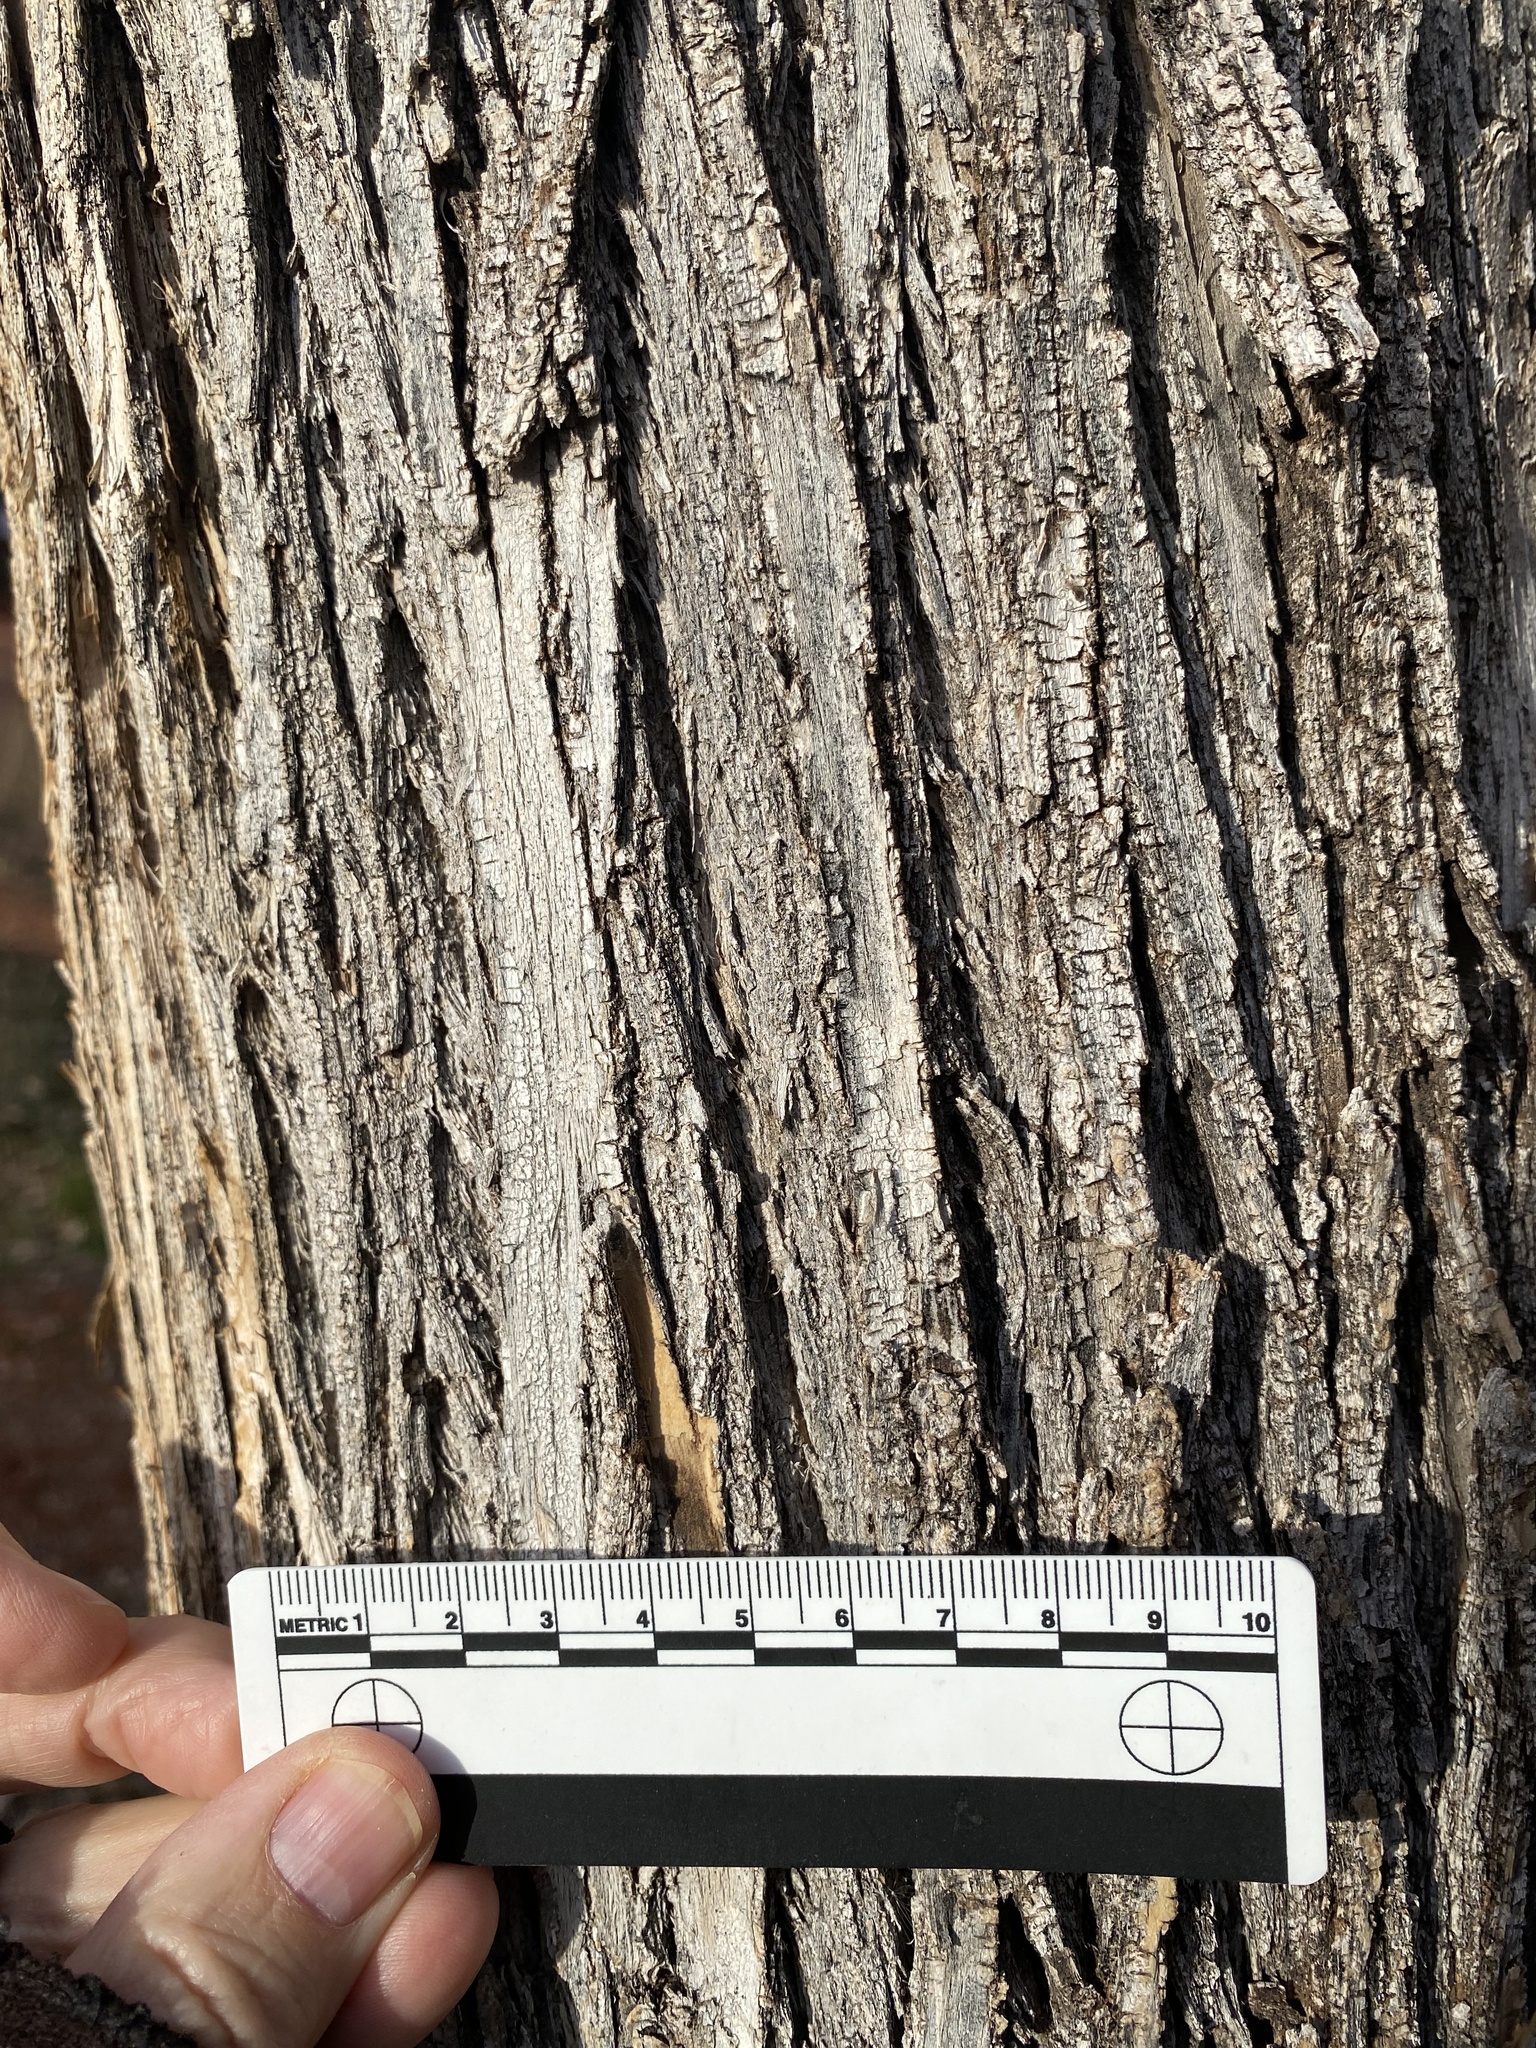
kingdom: Plantae
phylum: Tracheophyta
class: Magnoliopsida
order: Lamiales
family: Oleaceae
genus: Fraxinus
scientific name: Fraxinus velutina
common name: Arizon ash
